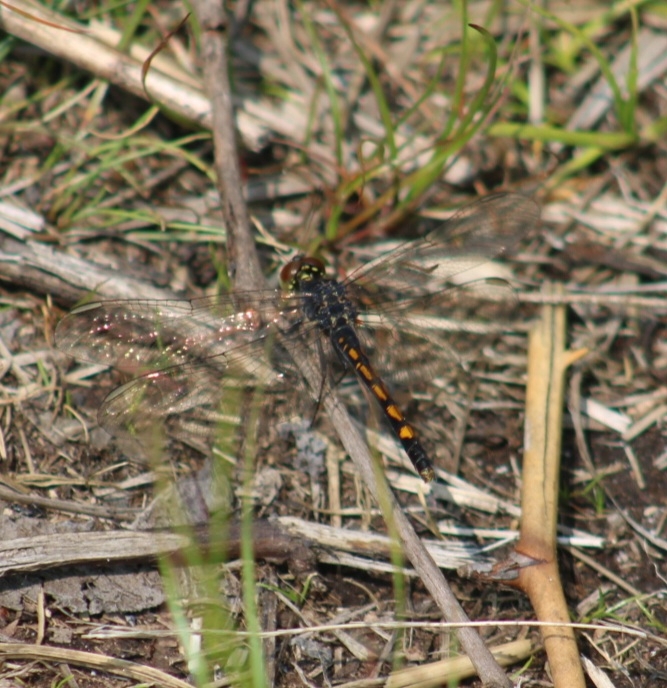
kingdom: Animalia
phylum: Arthropoda
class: Insecta
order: Odonata
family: Libellulidae
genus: Erythrodiplax
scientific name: Erythrodiplax berenice
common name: Seaside dragonlet
